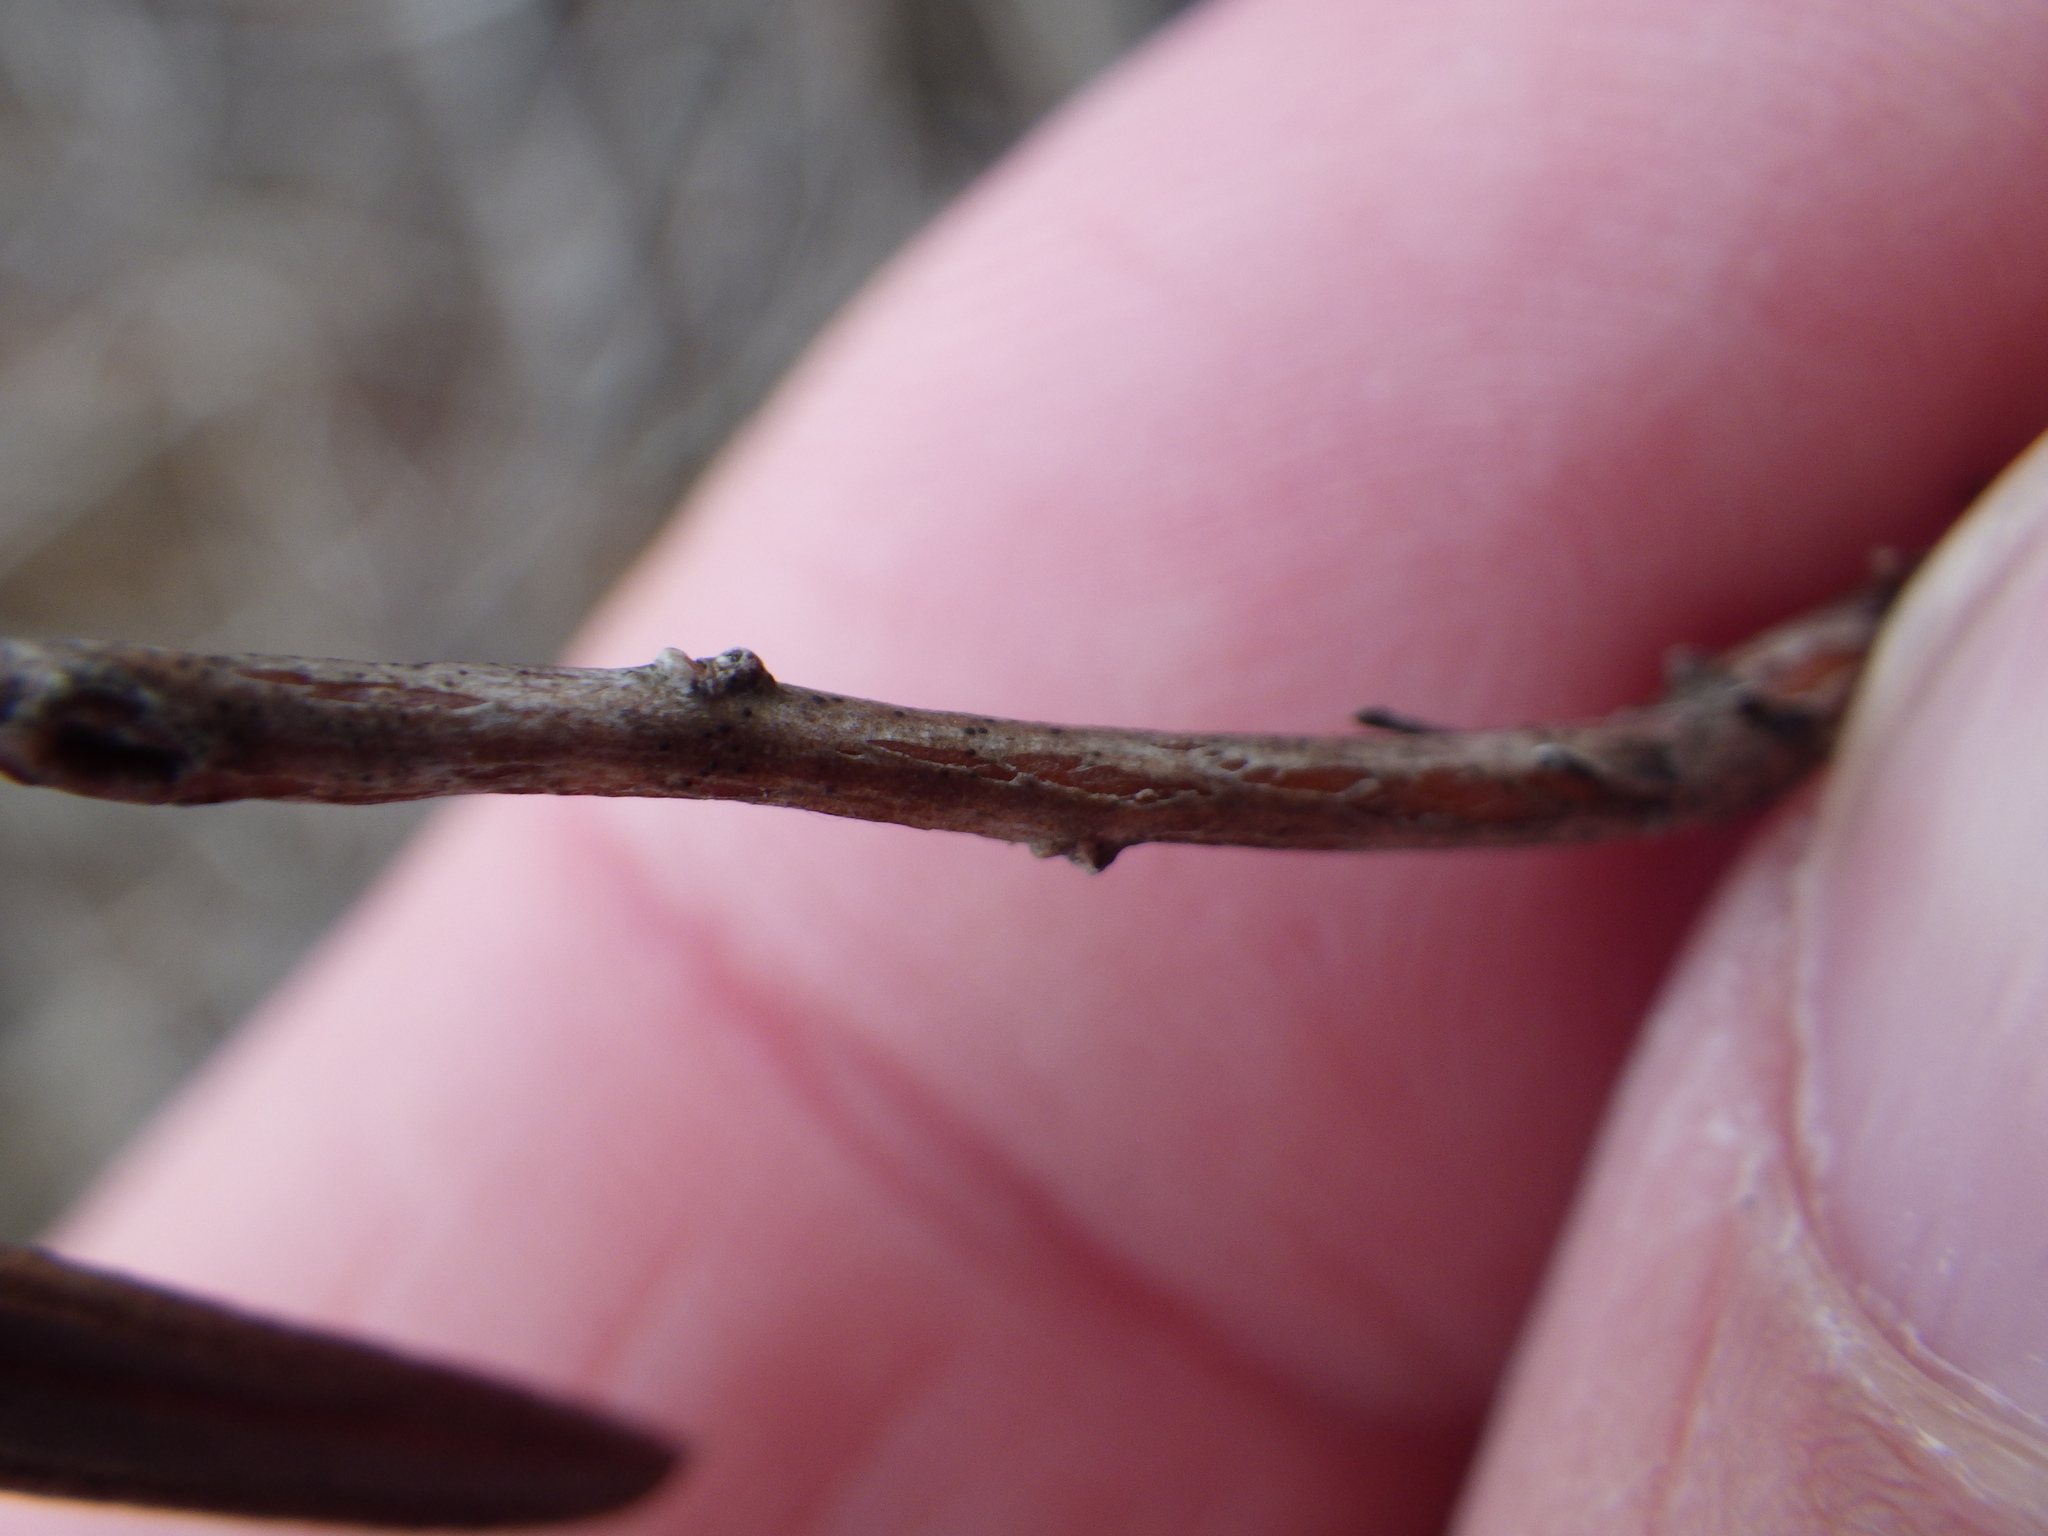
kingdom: Plantae
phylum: Tracheophyta
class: Magnoliopsida
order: Ericales
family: Ericaceae
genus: Andromeda
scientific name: Andromeda polifolia
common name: Bog-rosemary
